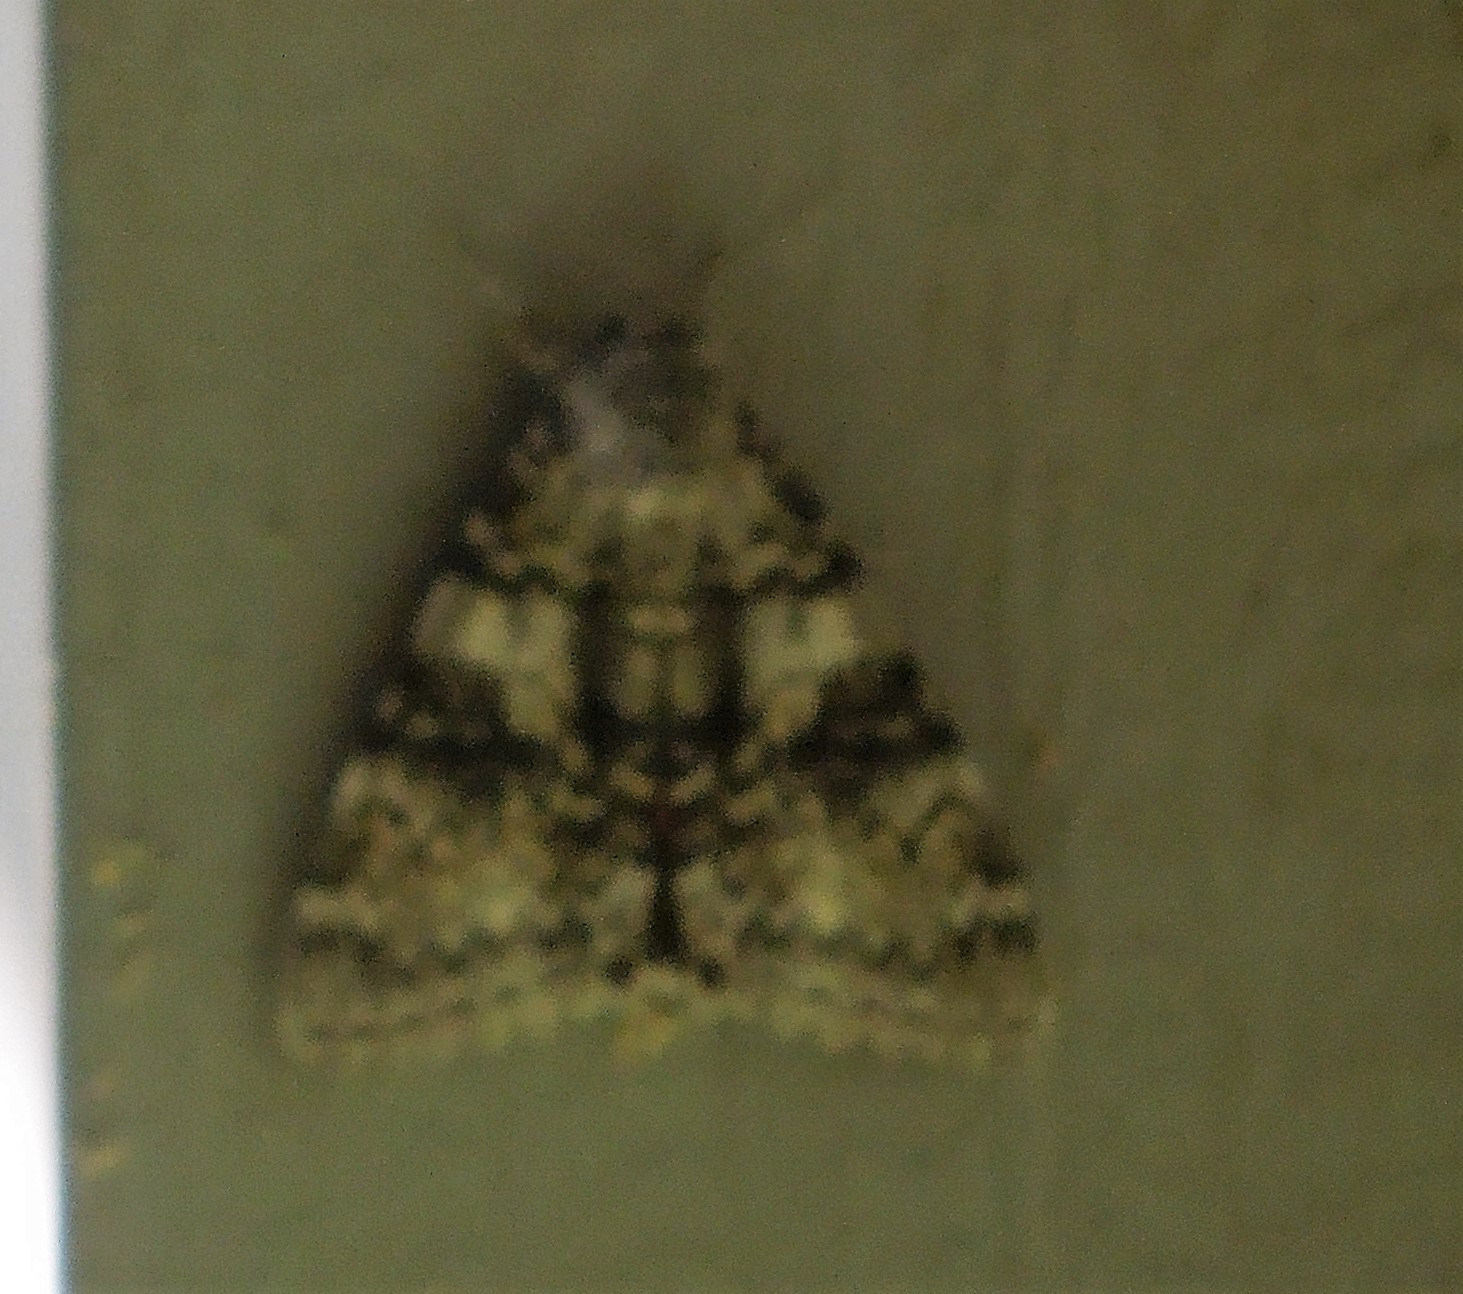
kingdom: Animalia
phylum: Arthropoda
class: Insecta
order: Lepidoptera
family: Erebidae
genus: Catocala
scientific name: Catocala semirelicta
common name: Semirelict underwing moth
